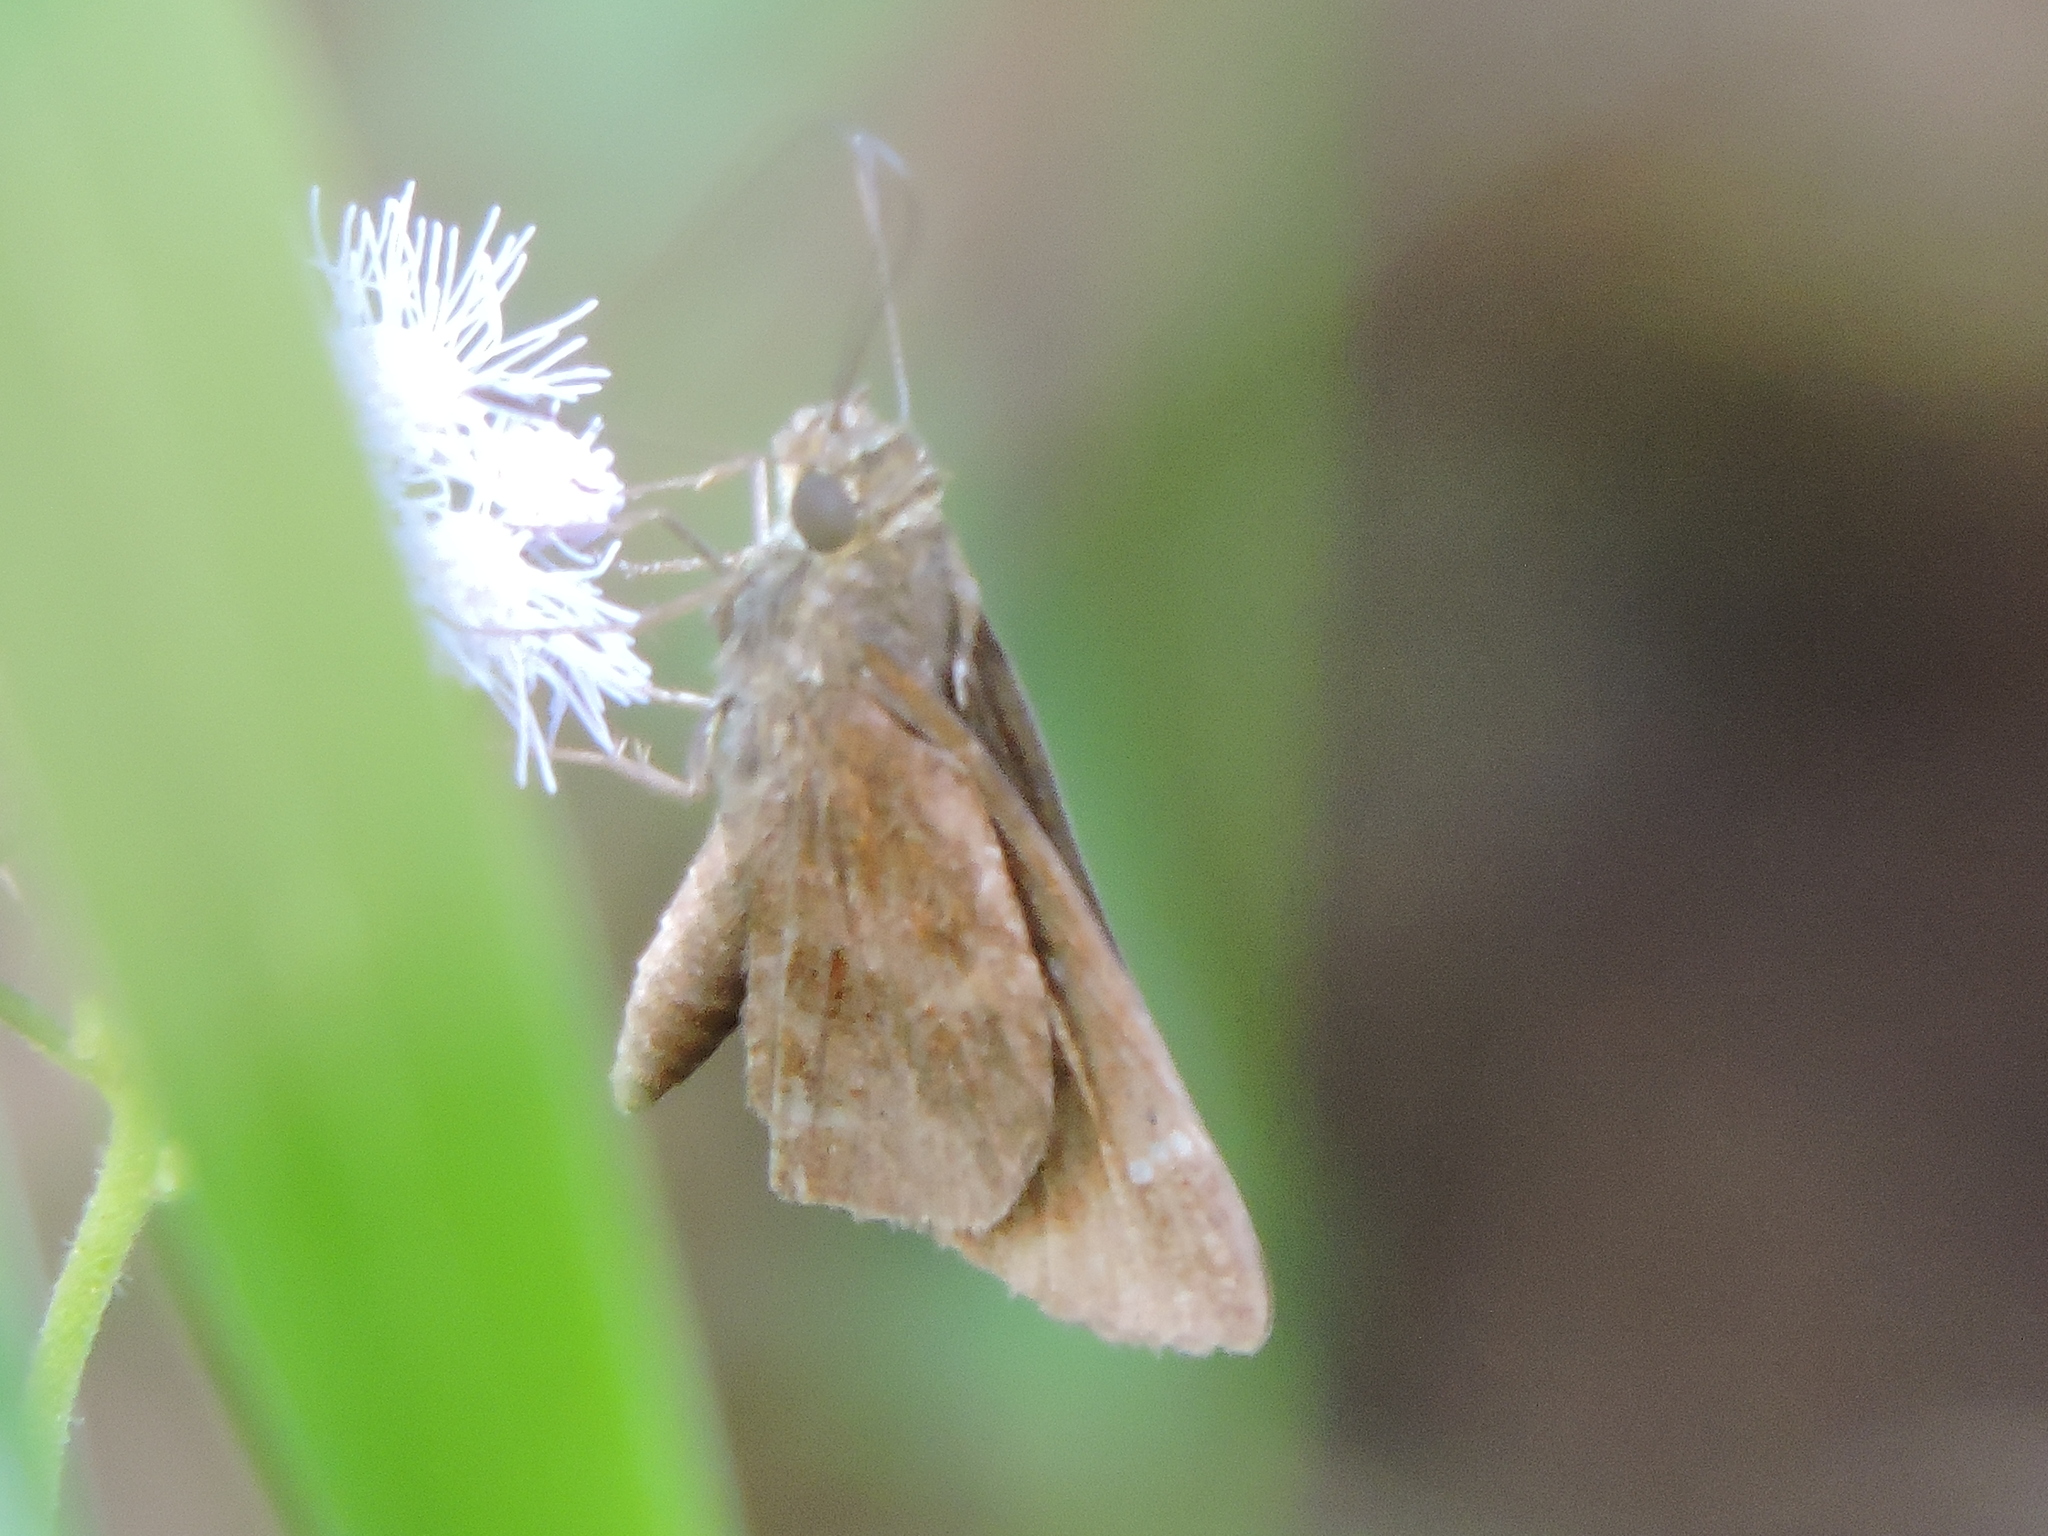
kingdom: Animalia
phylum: Arthropoda
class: Insecta
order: Lepidoptera
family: Hesperiidae
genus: Lerema
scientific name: Lerema accius
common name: Clouded skipper
